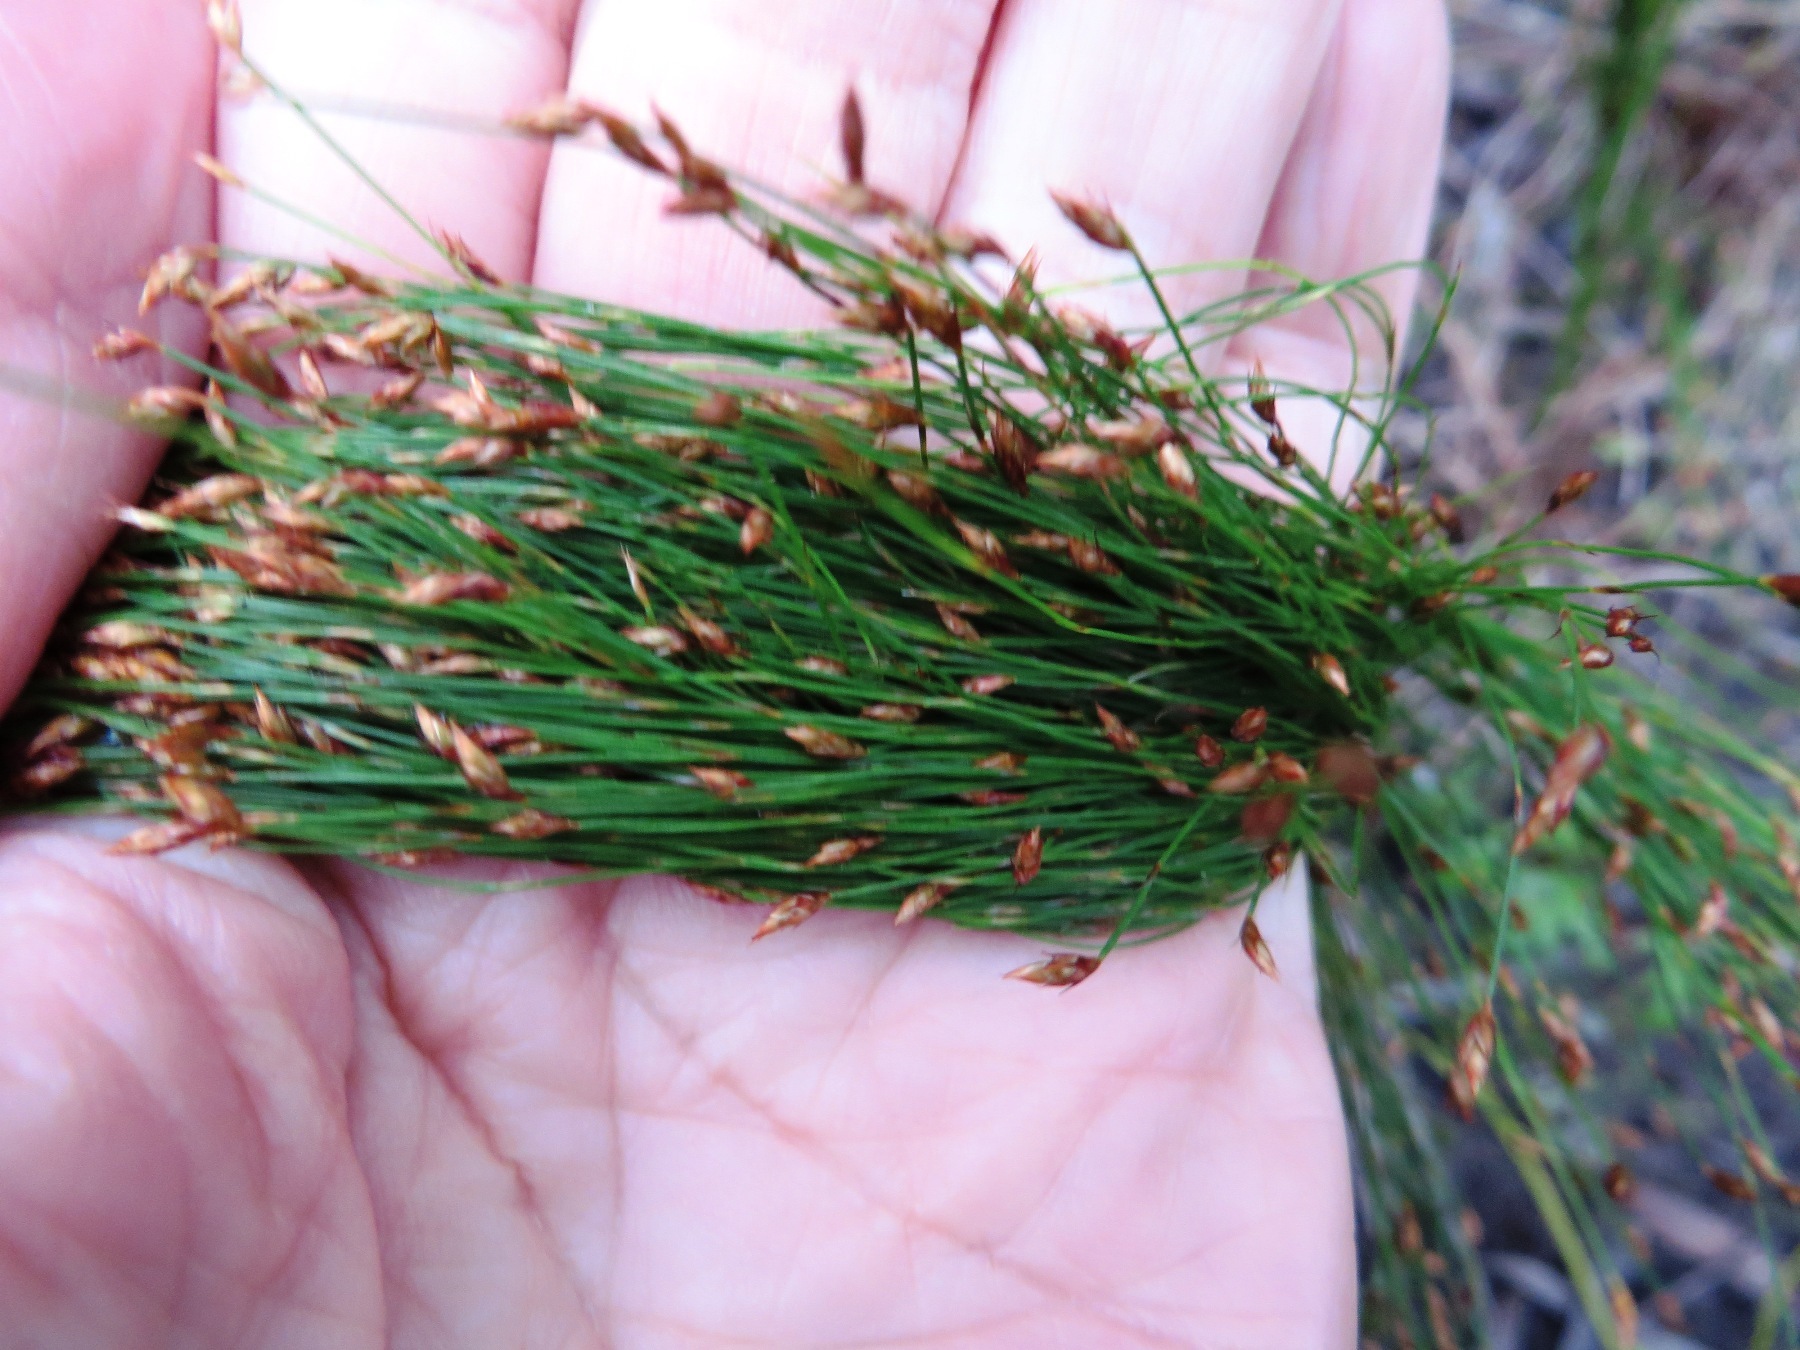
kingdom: Plantae
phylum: Tracheophyta
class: Liliopsida
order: Poales
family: Restionaceae
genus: Restio
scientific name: Restio leptoclados
